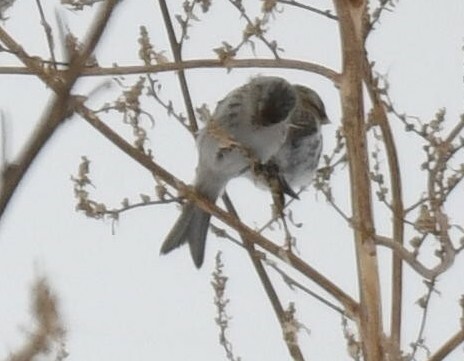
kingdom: Animalia
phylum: Chordata
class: Aves
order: Passeriformes
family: Fringillidae
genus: Acanthis
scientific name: Acanthis hornemanni
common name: Arctic redpoll
